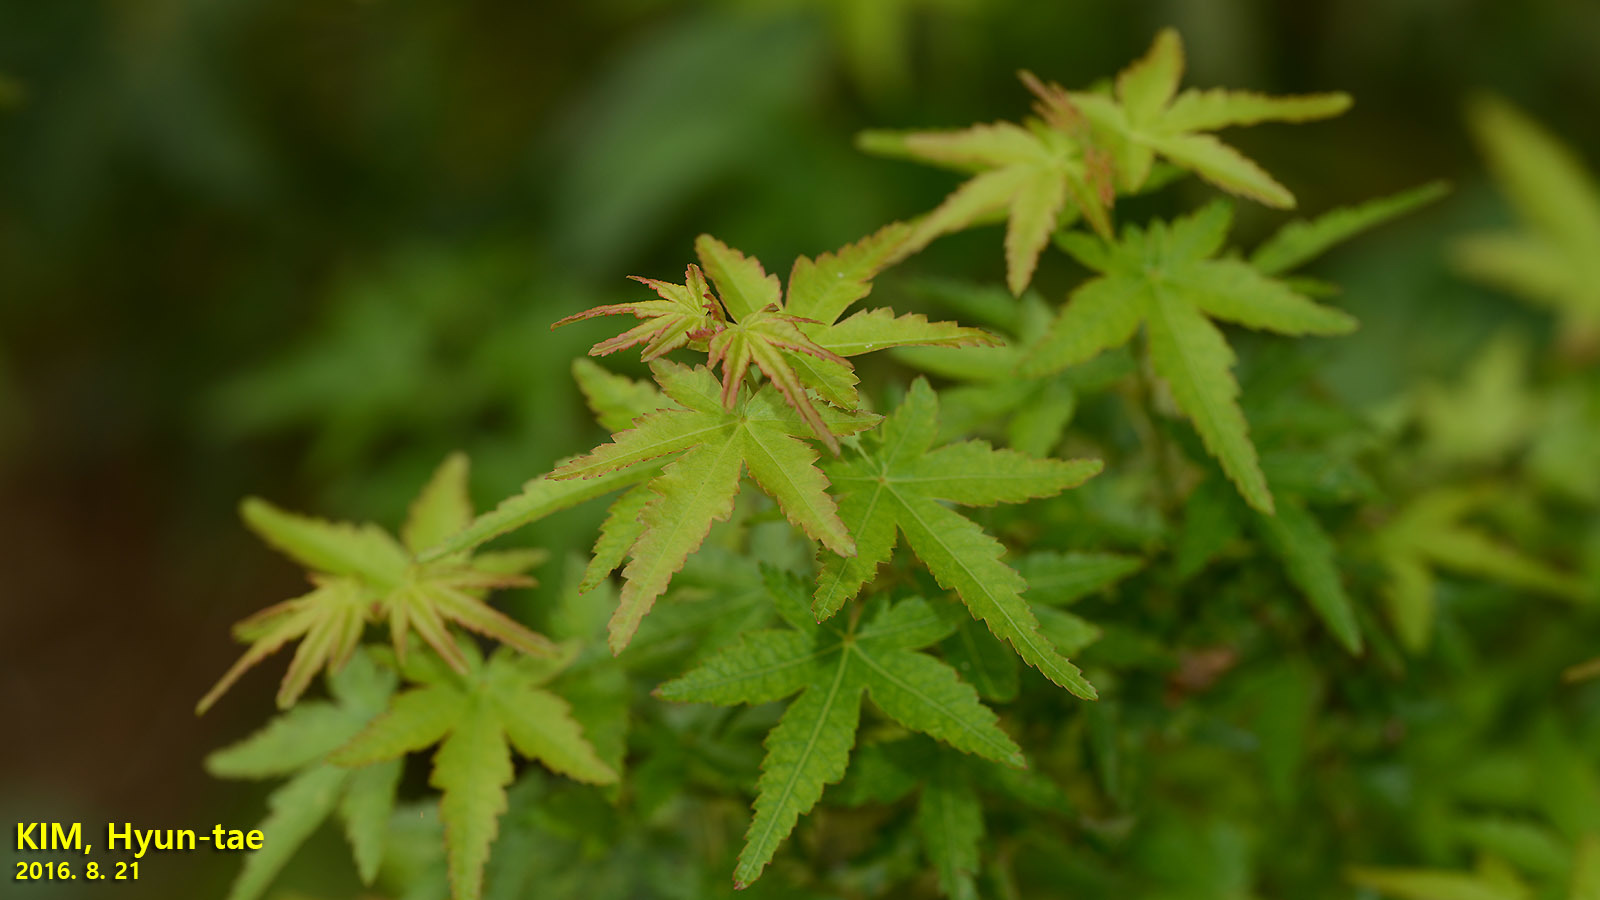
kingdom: Plantae
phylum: Tracheophyta
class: Magnoliopsida
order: Sapindales
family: Sapindaceae
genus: Acer
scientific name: Acer palmatum
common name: Japanese maple
